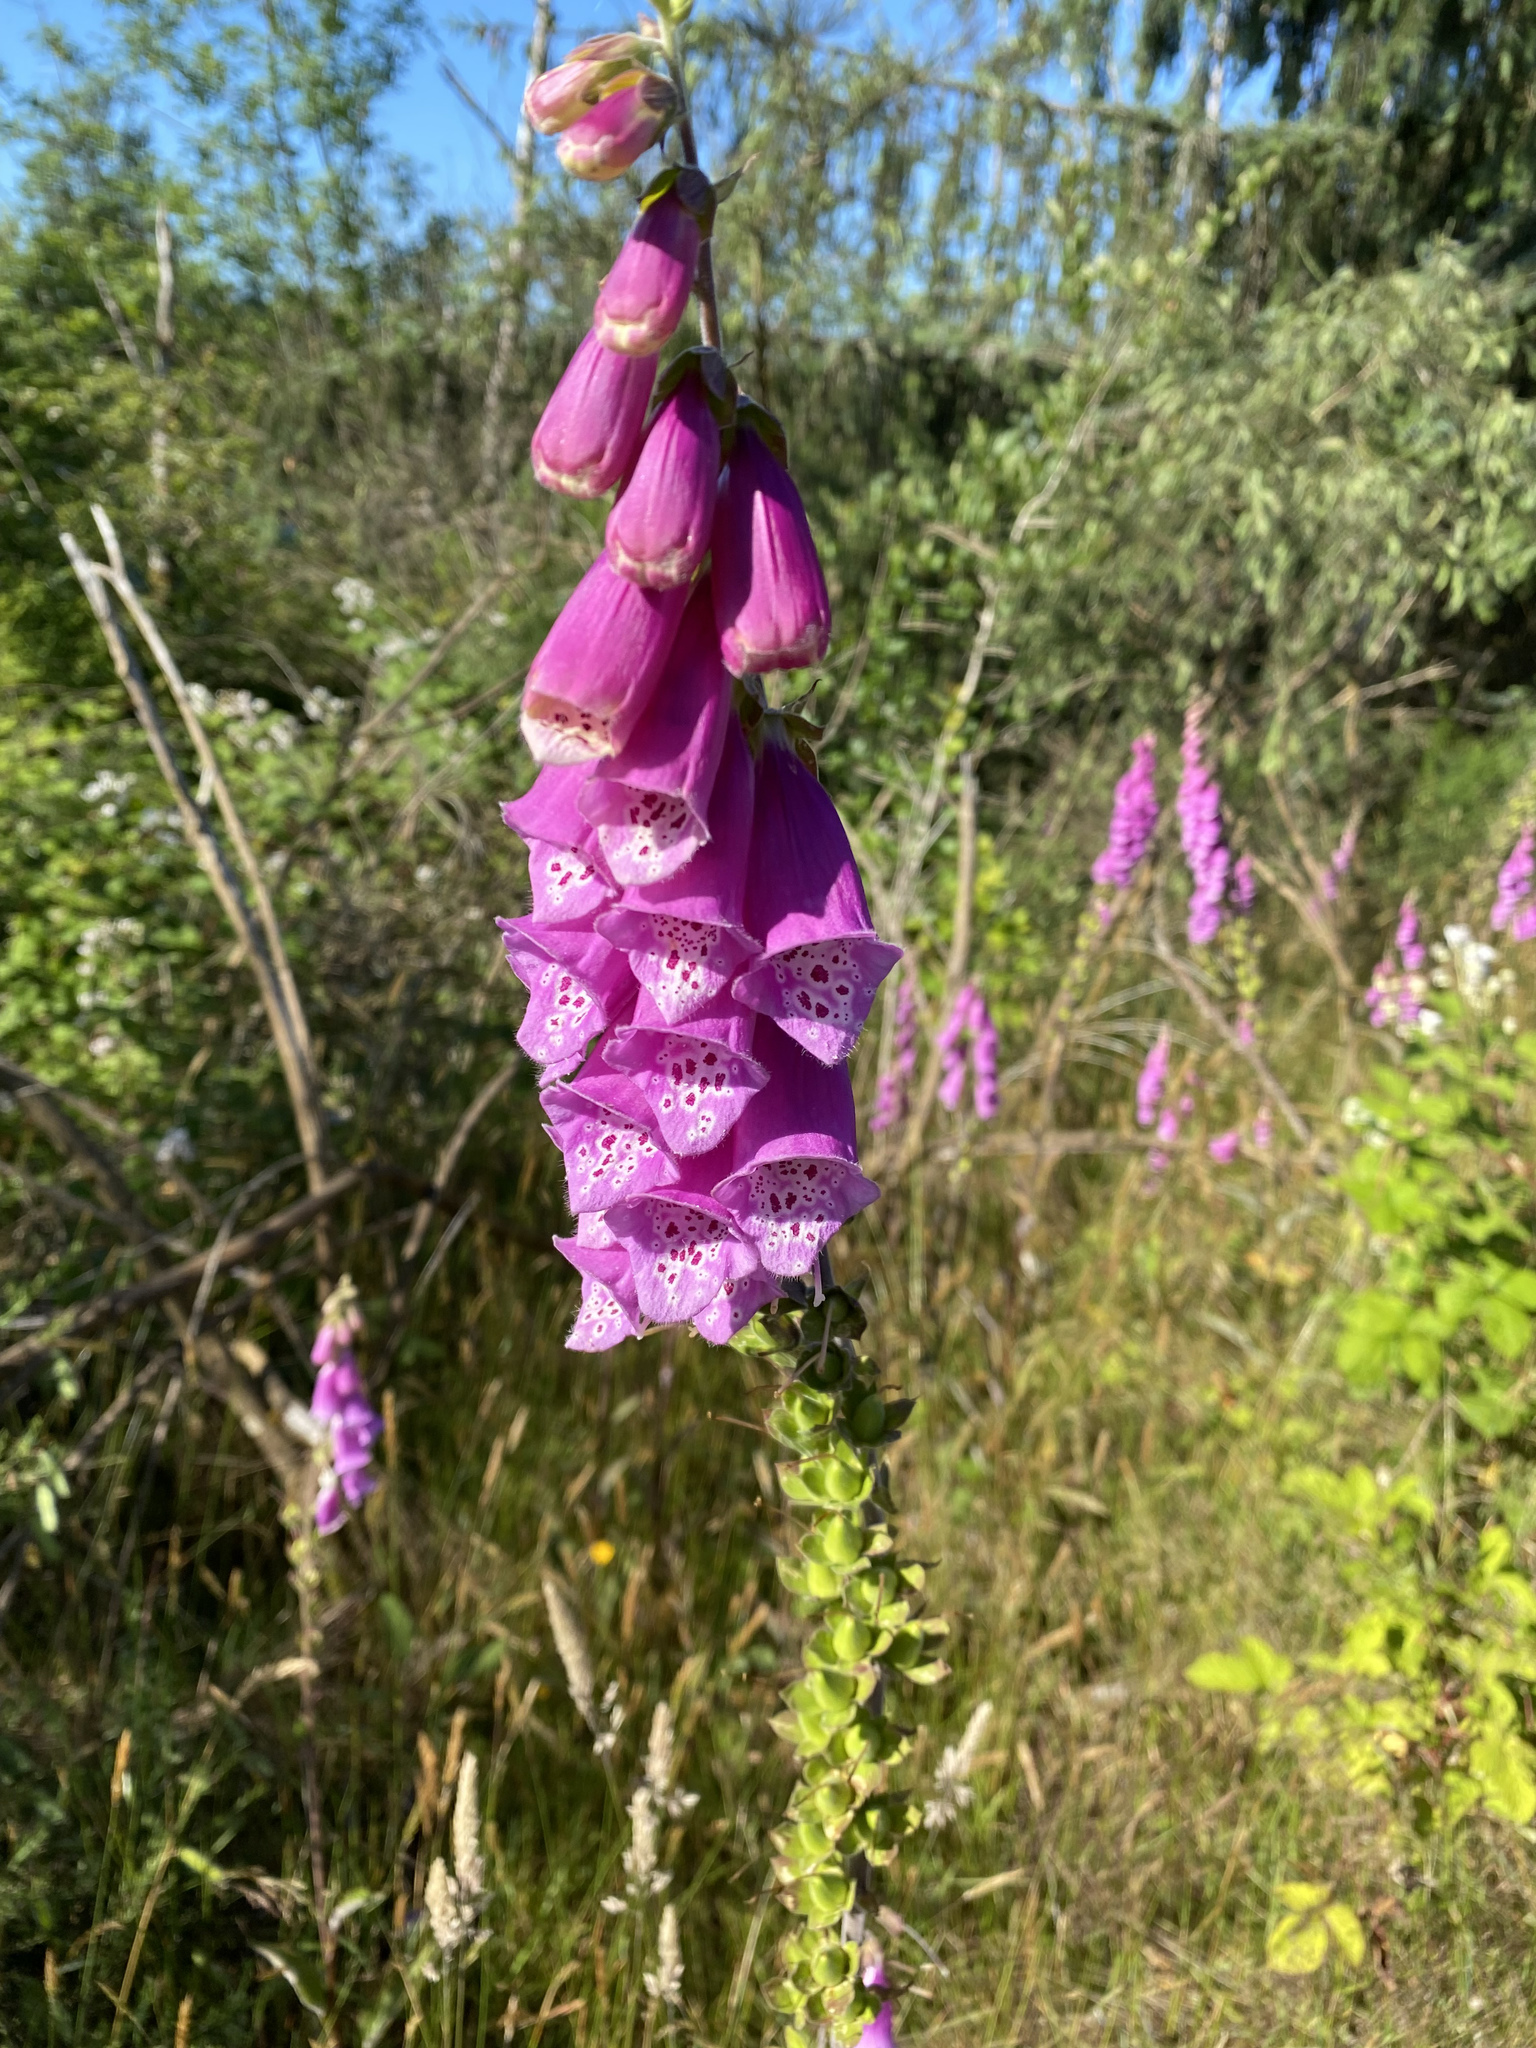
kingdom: Plantae
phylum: Tracheophyta
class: Magnoliopsida
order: Lamiales
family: Plantaginaceae
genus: Digitalis
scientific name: Digitalis purpurea
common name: Foxglove
